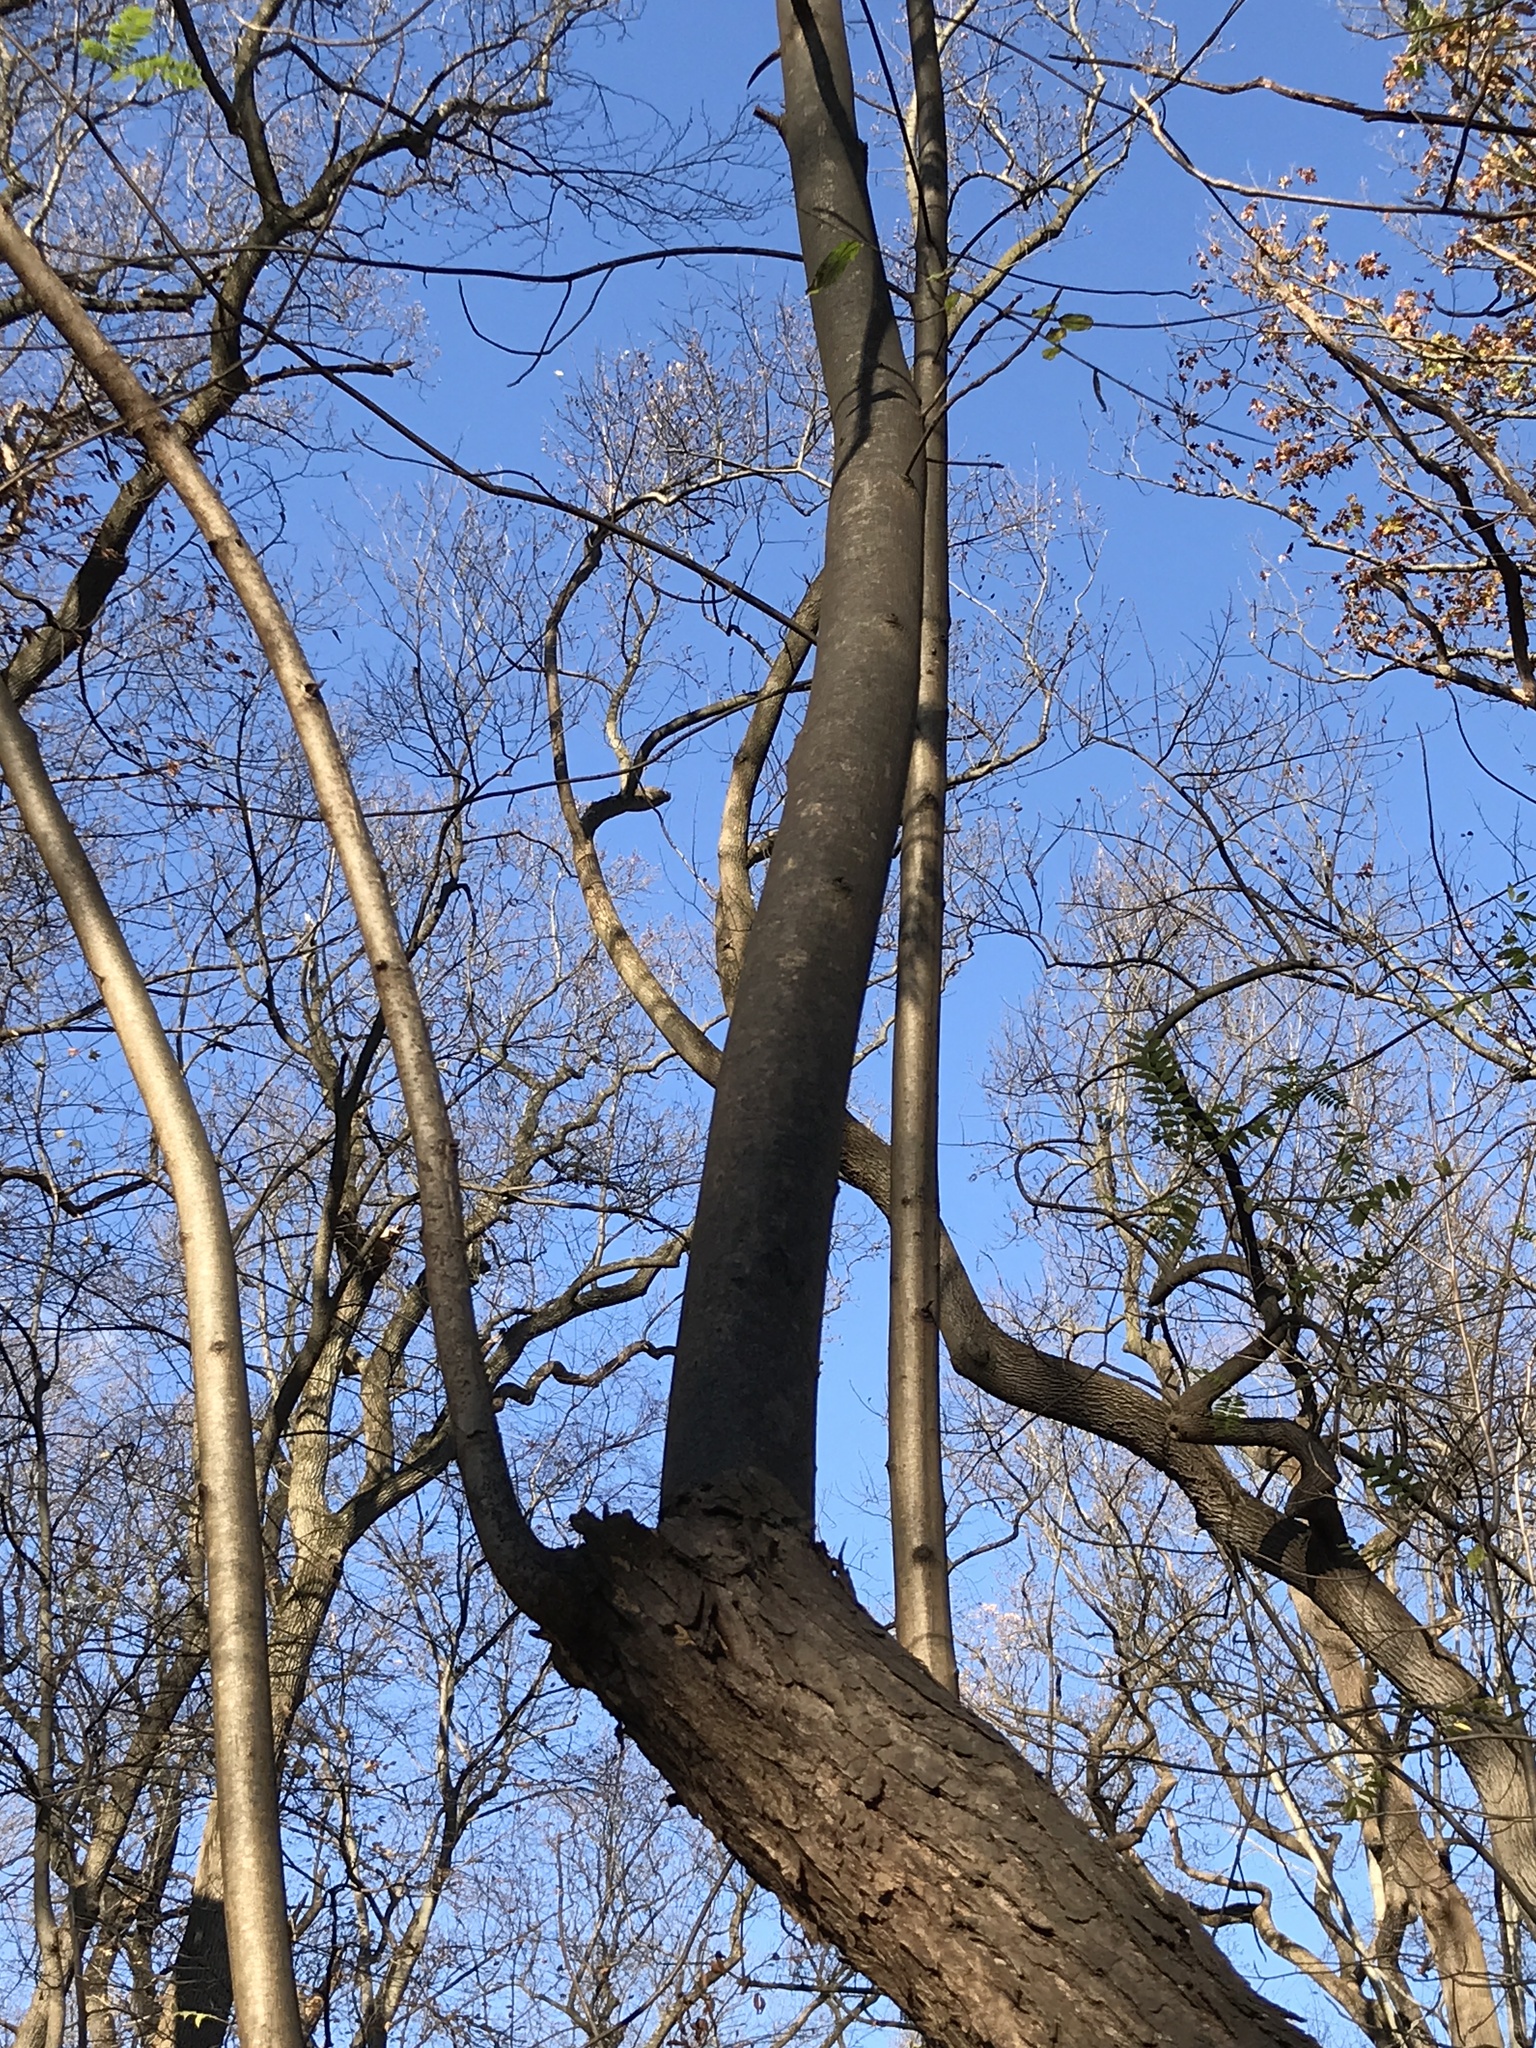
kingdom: Plantae
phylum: Tracheophyta
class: Magnoliopsida
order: Sapindales
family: Meliaceae
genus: Toona
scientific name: Toona sinensis
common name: Red toon
